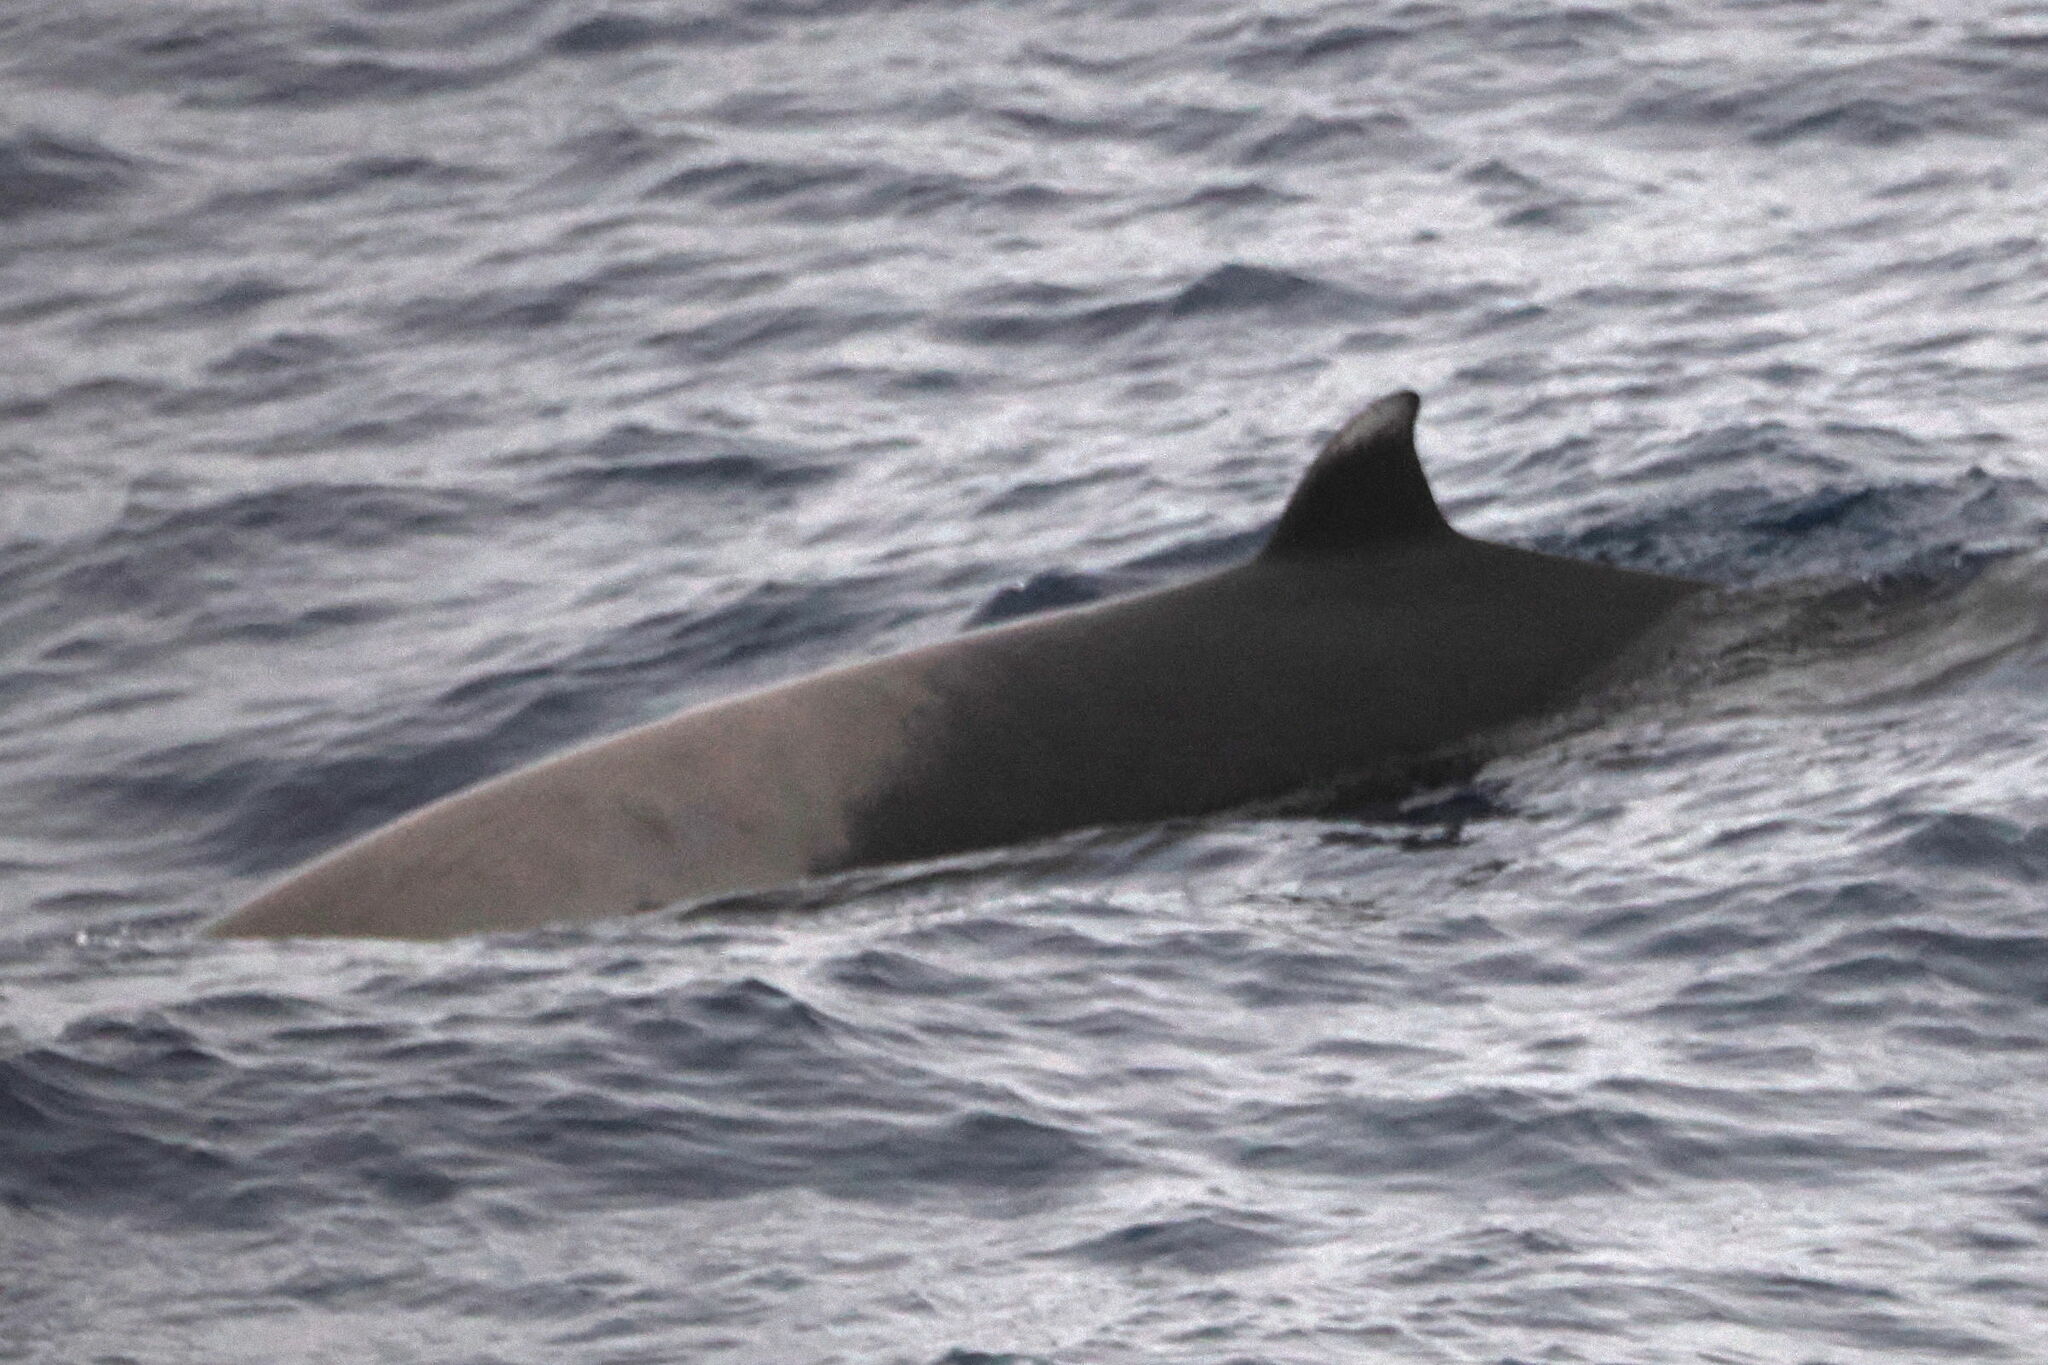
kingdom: Animalia
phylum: Chordata
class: Mammalia
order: Cetacea
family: Hyperoodontidae
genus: Mesoplodon
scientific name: Mesoplodon layardii
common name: Strap-toothed whale
